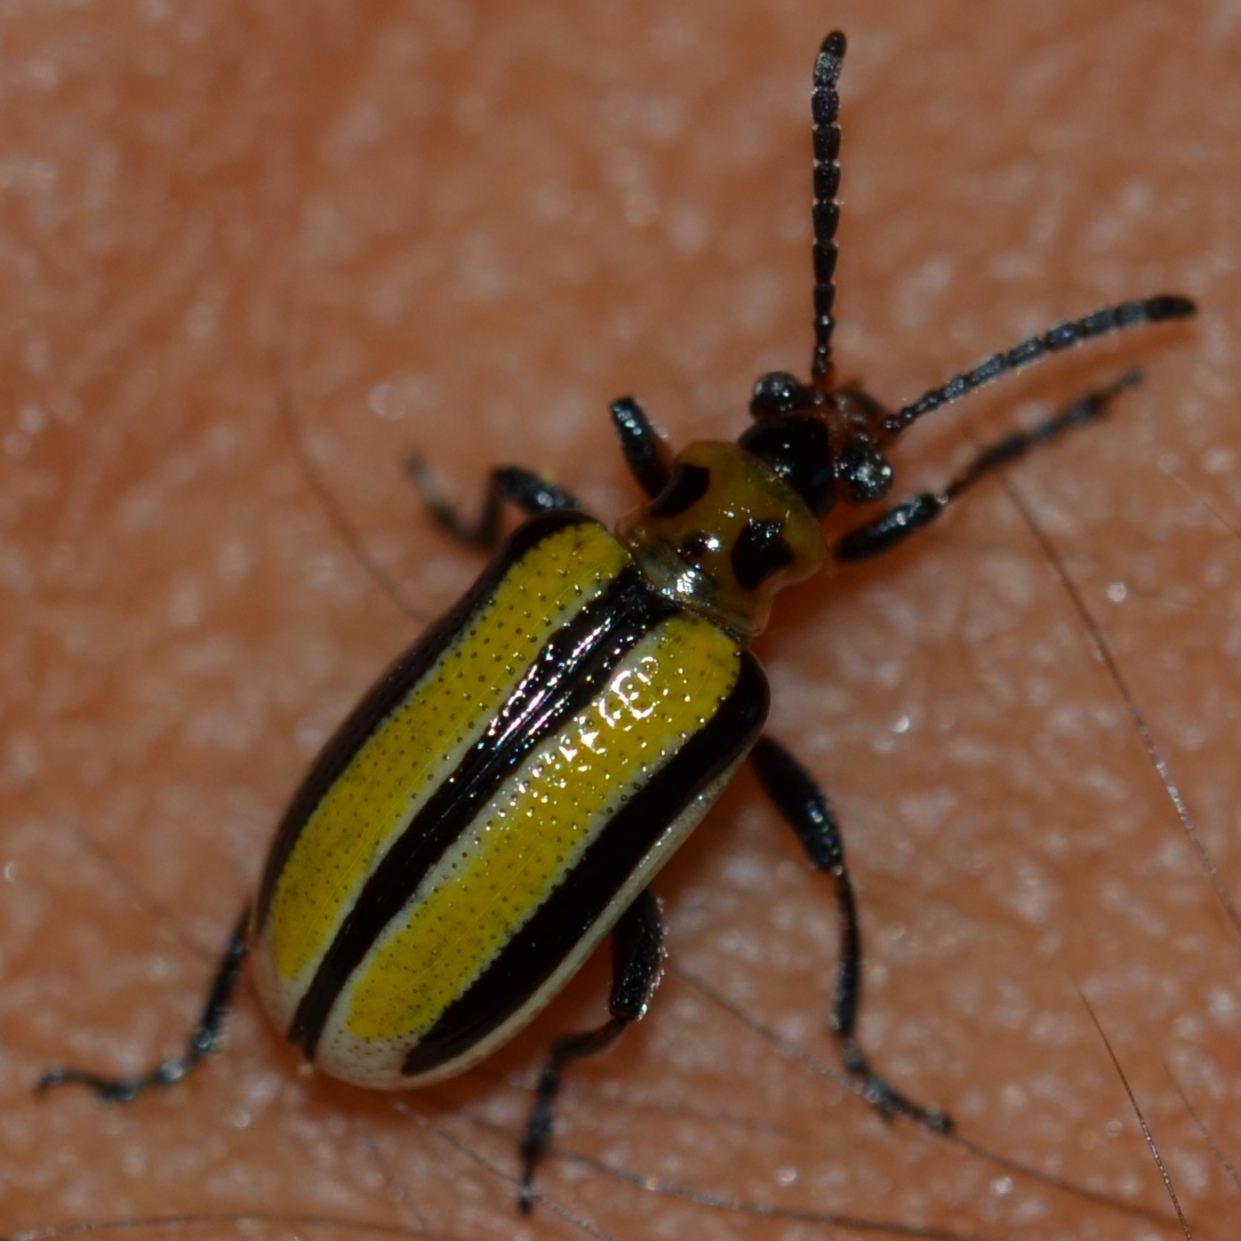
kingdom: Animalia
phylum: Arthropoda
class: Insecta
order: Coleoptera
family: Chrysomelidae
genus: Lema
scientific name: Lema daturaphila
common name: Leaf beetle
